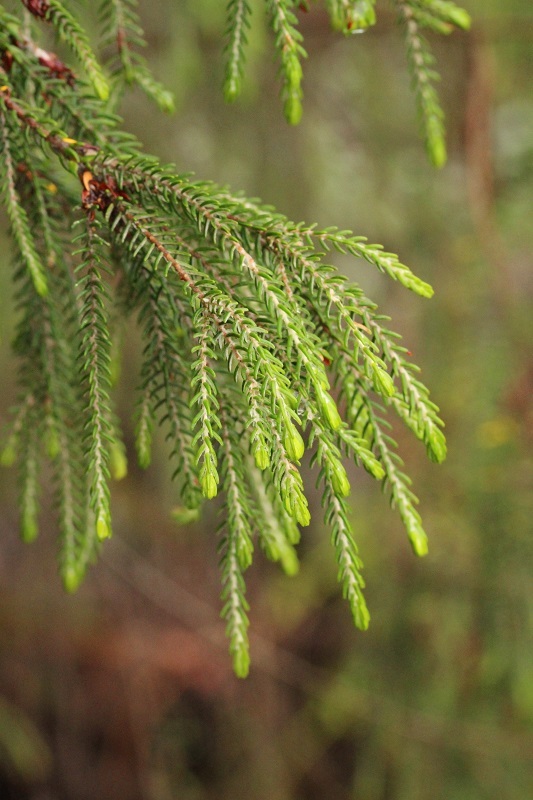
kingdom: Plantae
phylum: Tracheophyta
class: Magnoliopsida
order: Malvales
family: Thymelaeaceae
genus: Passerina
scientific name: Passerina falcifolia
